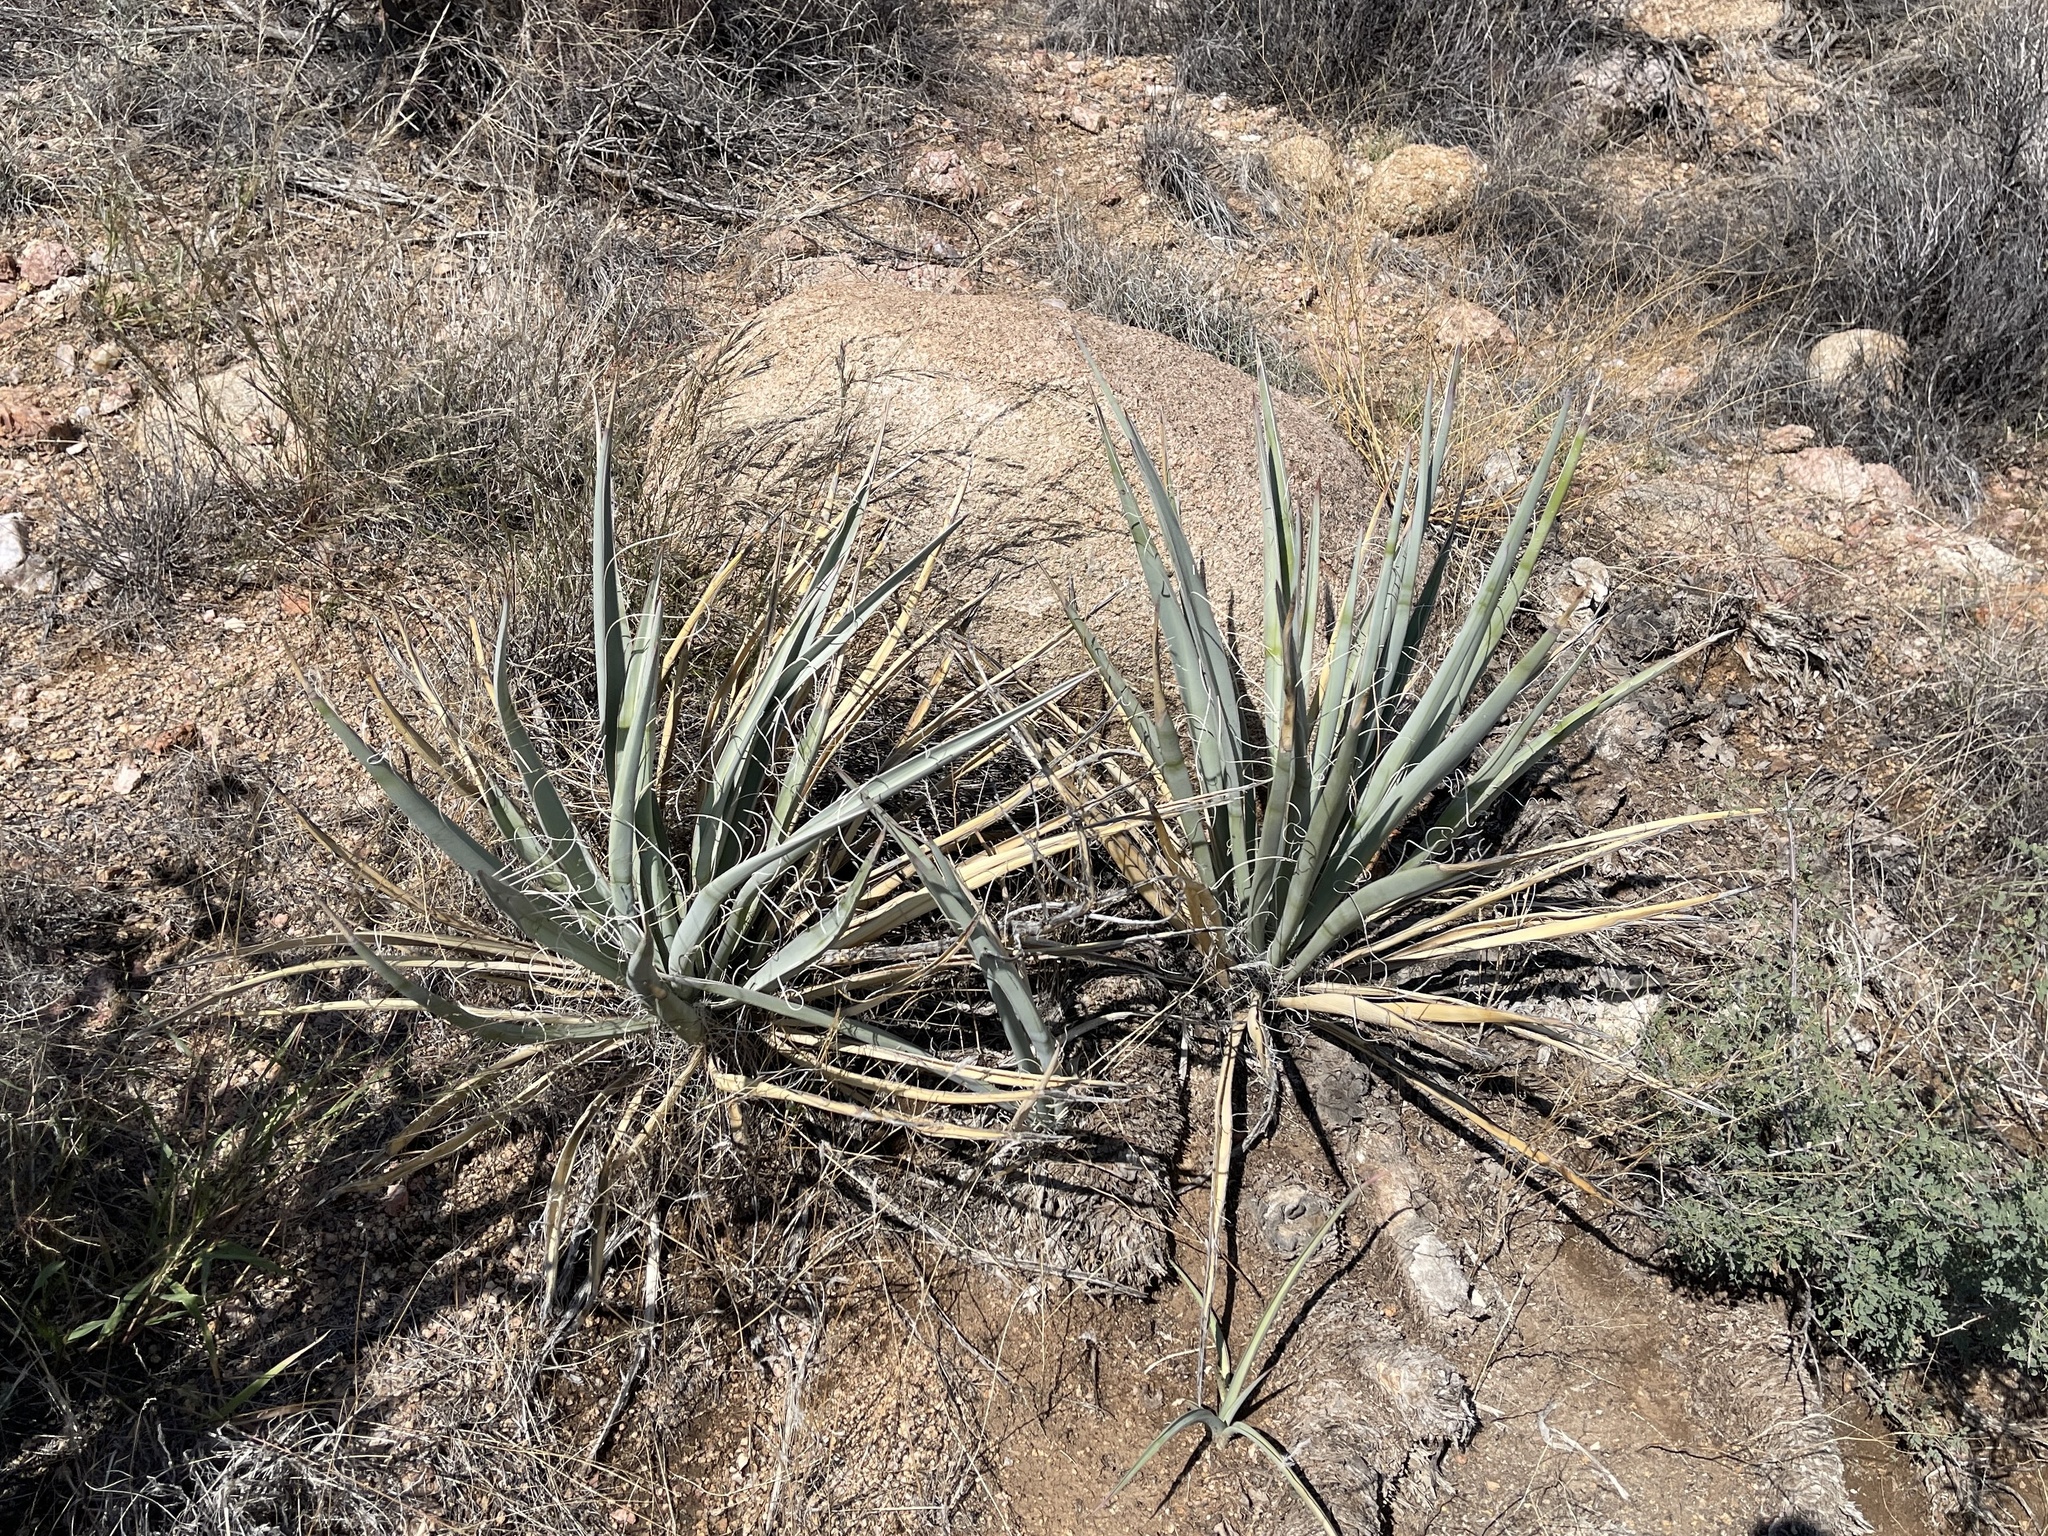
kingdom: Plantae
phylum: Tracheophyta
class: Liliopsida
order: Asparagales
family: Asparagaceae
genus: Yucca
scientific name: Yucca baccata
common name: Banana yucca
